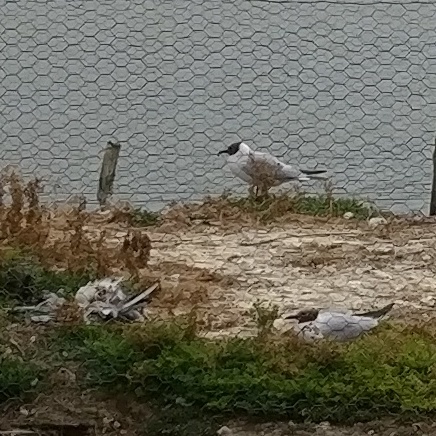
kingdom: Animalia
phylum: Chordata
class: Aves
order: Charadriiformes
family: Laridae
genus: Chroicocephalus
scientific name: Chroicocephalus ridibundus
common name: Black-headed gull
